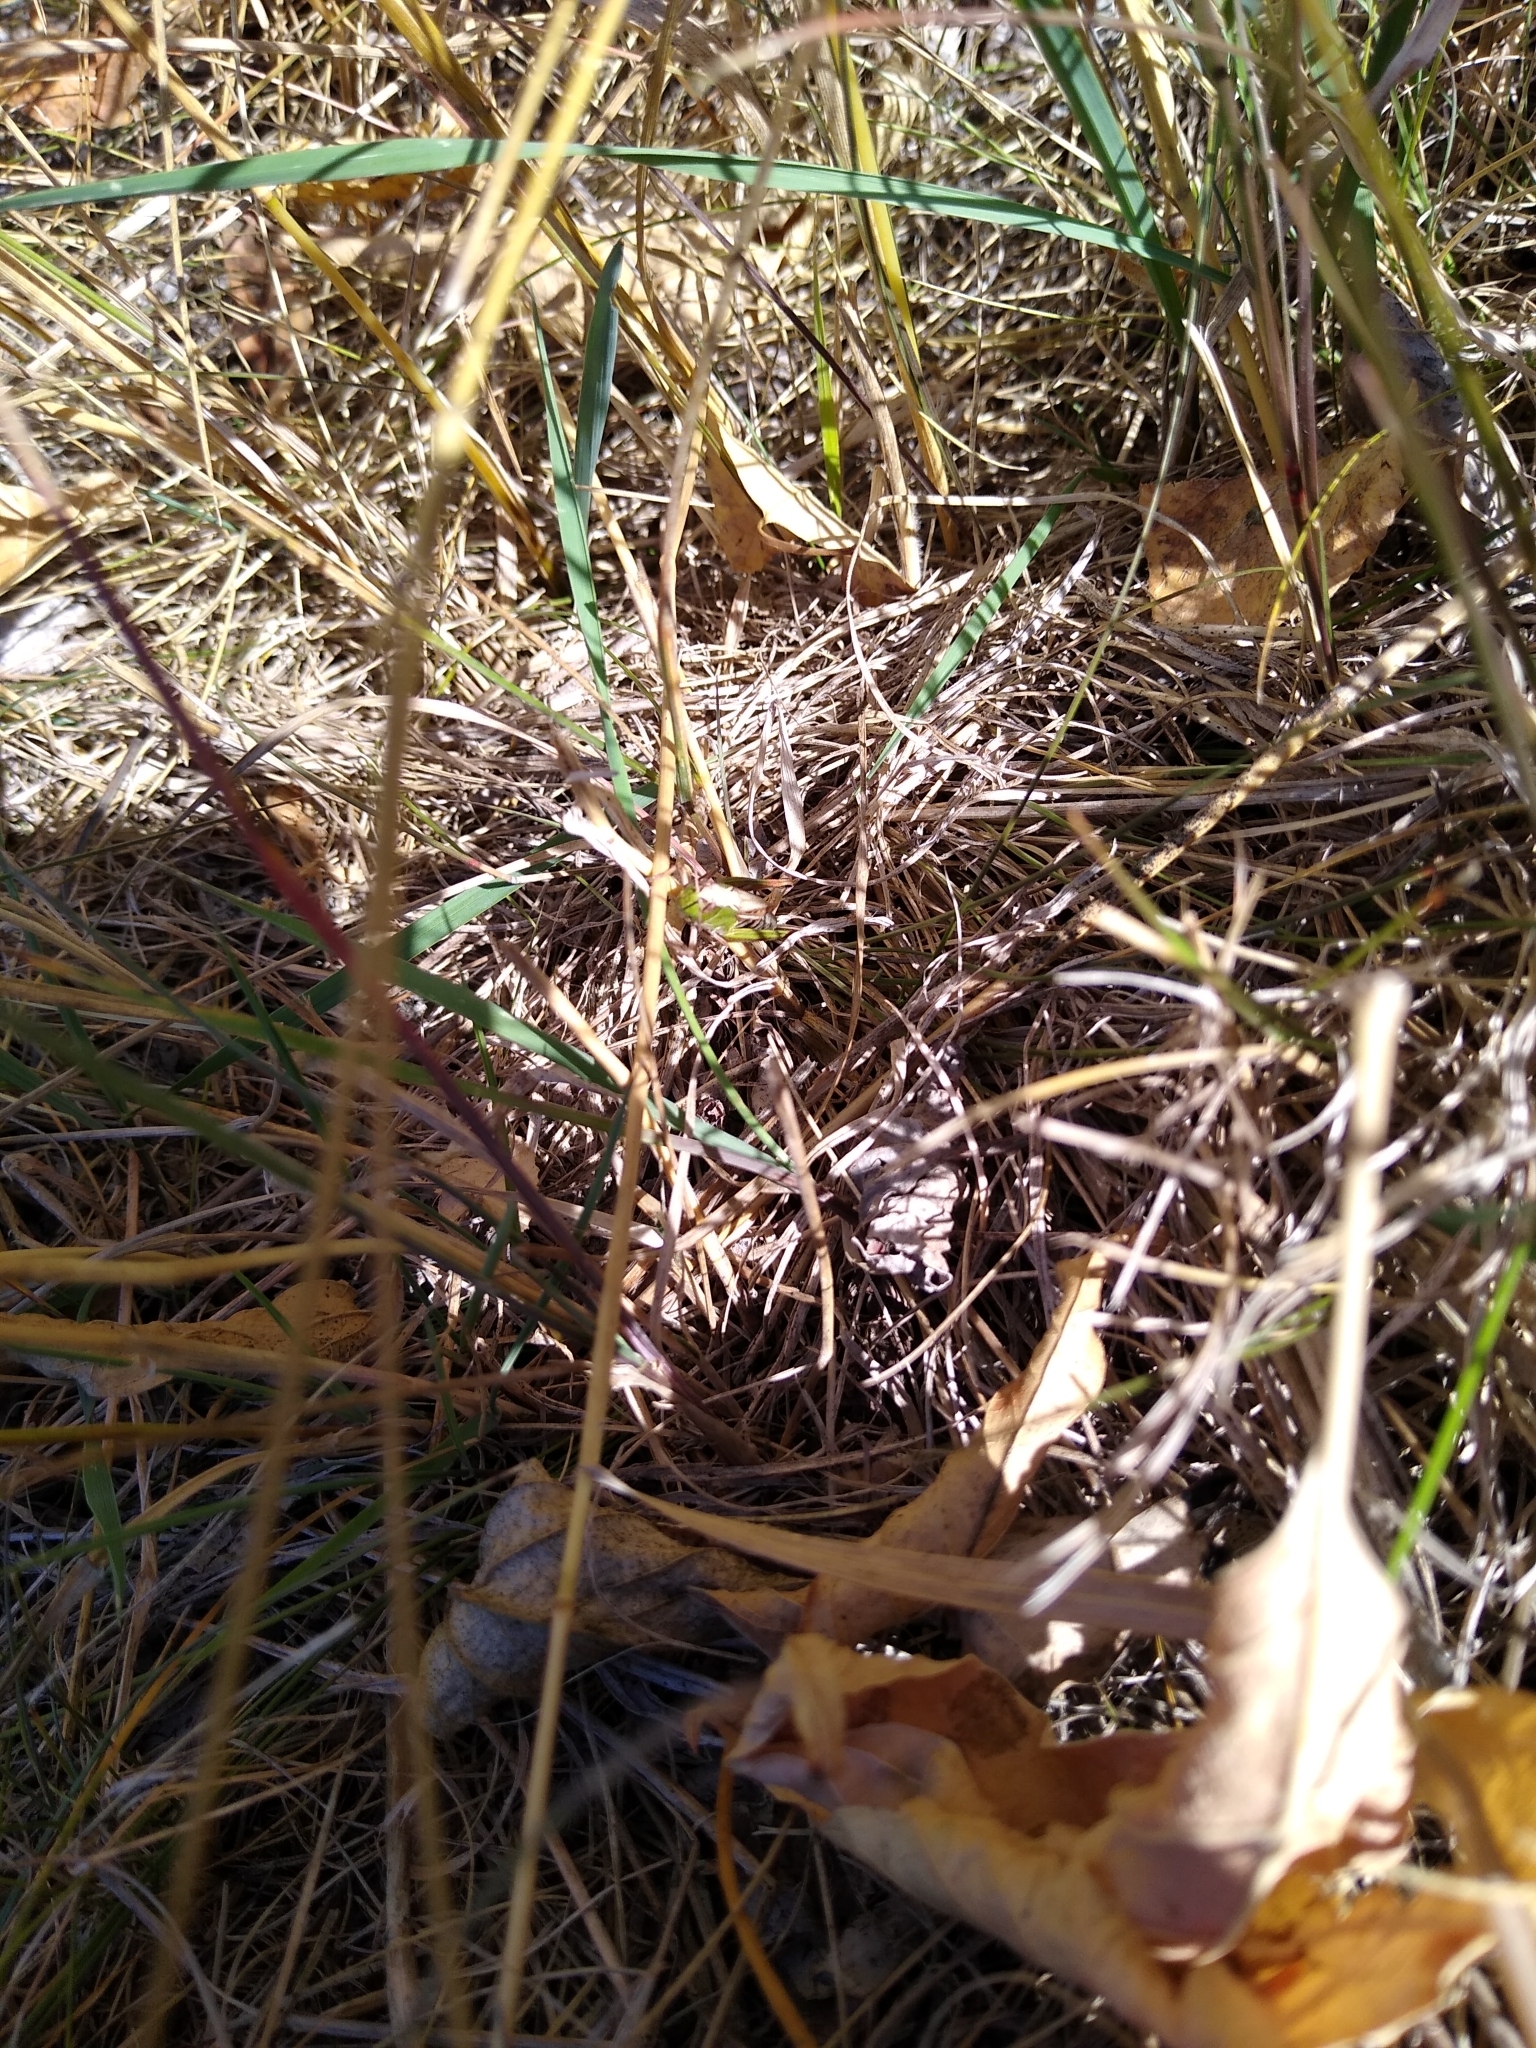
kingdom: Animalia
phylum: Arthropoda
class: Insecta
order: Orthoptera
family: Acrididae
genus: Pseudochorthippus
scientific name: Pseudochorthippus curtipennis
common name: Marsh meadow grasshopper
